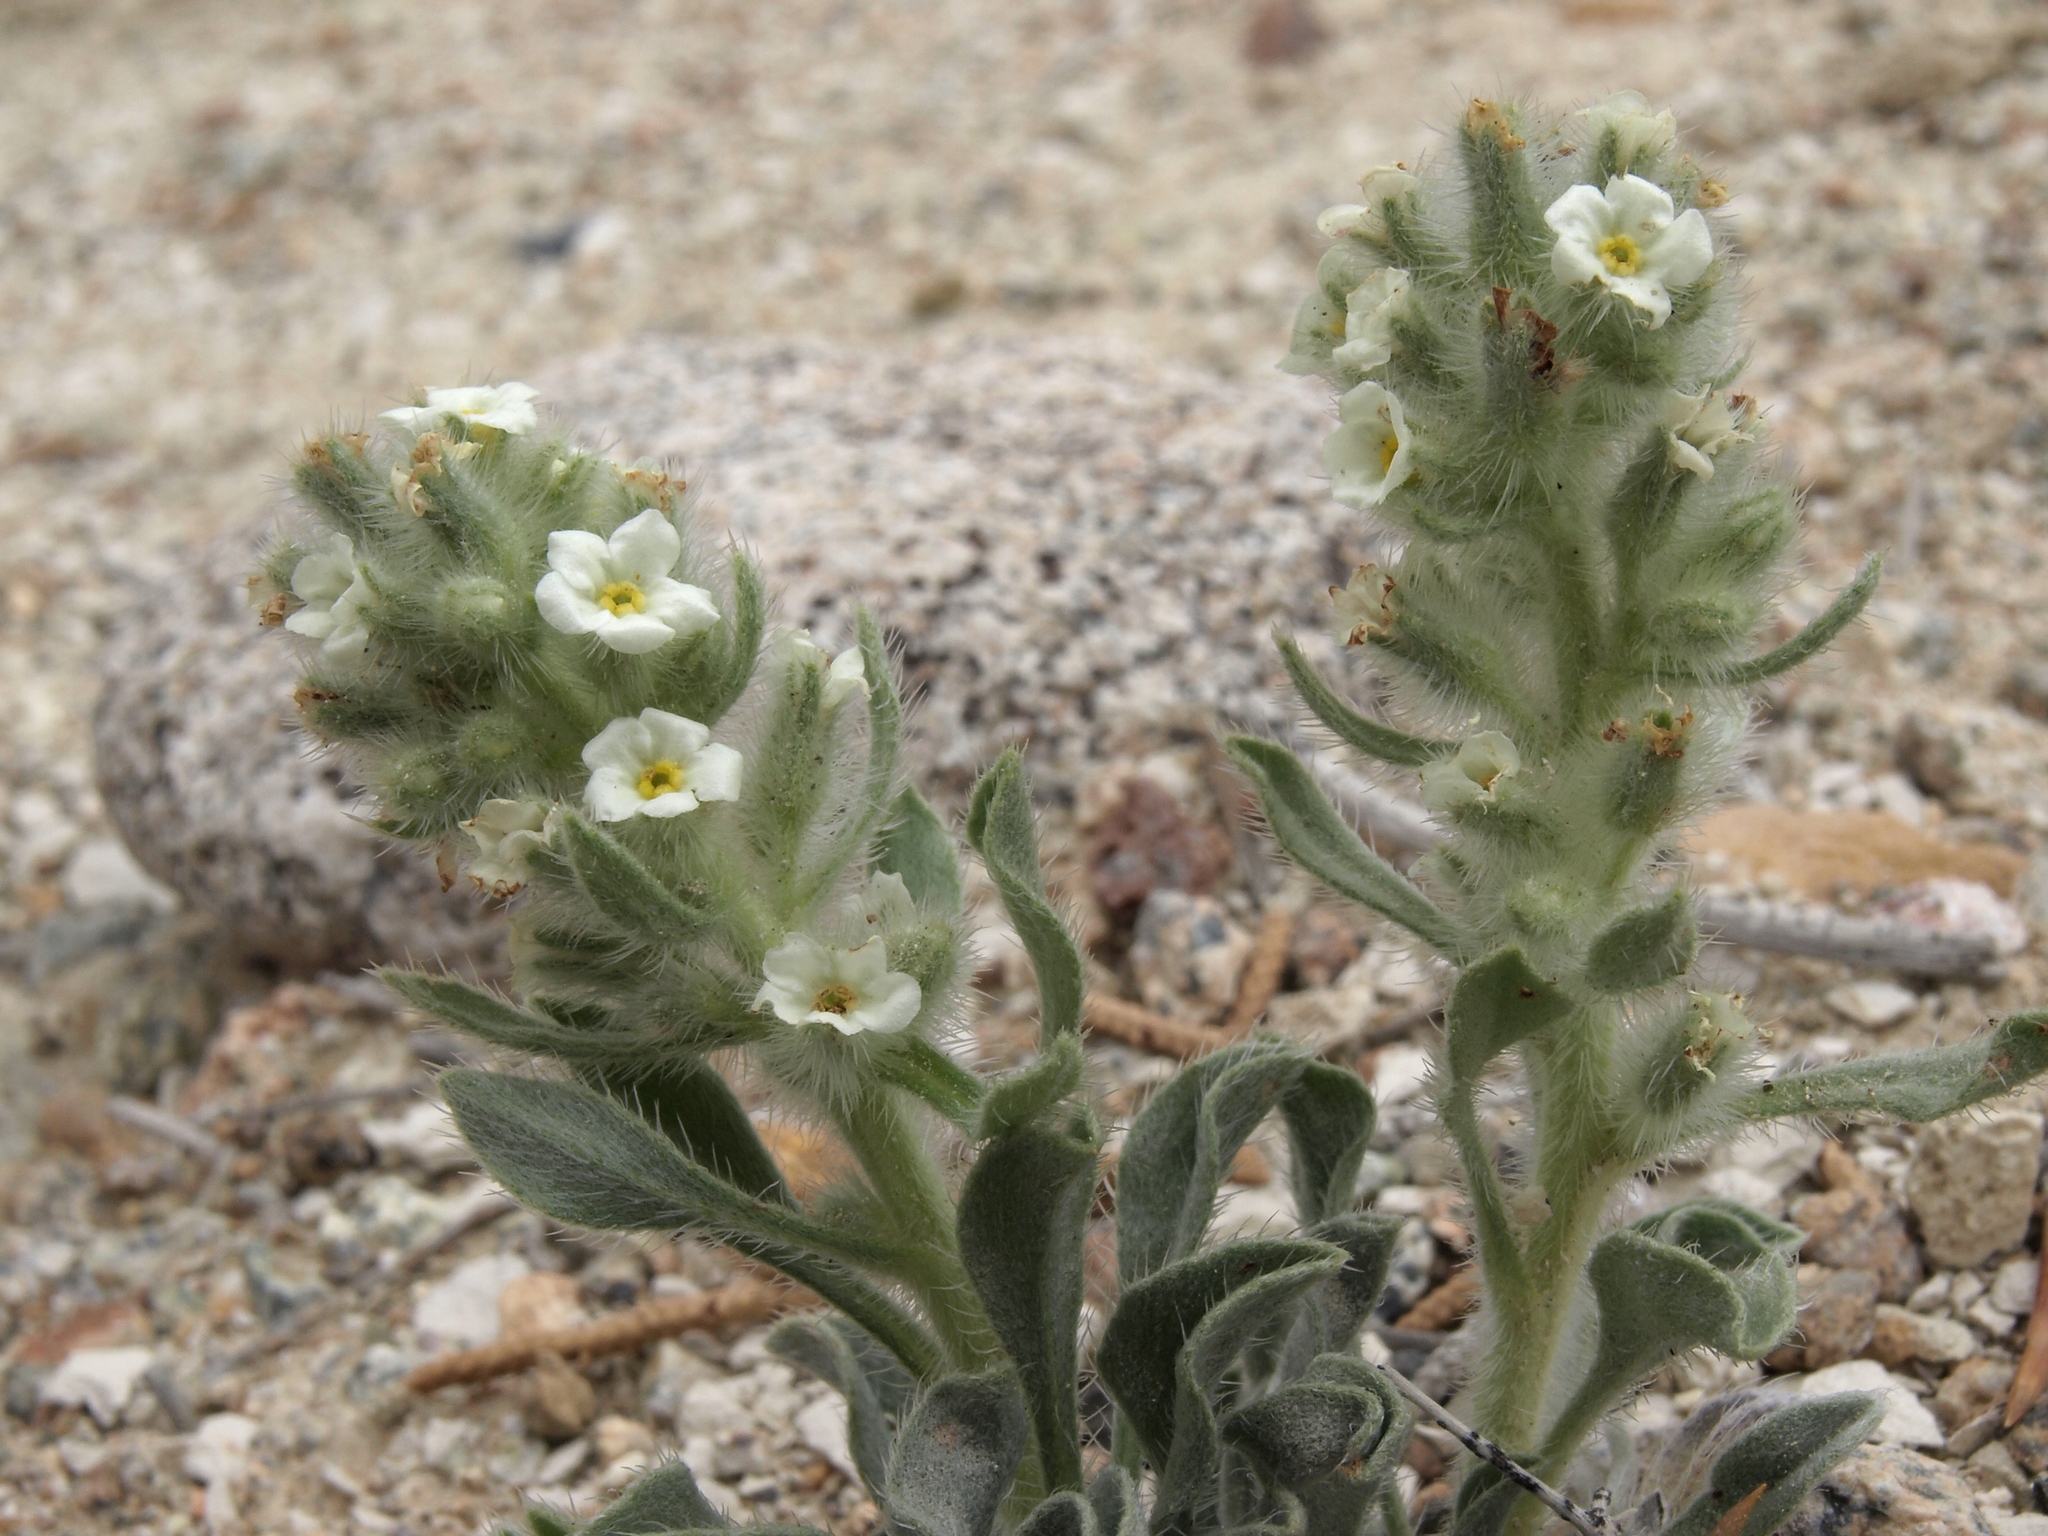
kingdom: Plantae
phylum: Tracheophyta
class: Magnoliopsida
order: Boraginales
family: Boraginaceae
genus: Oreocarya
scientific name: Oreocarya humilis
